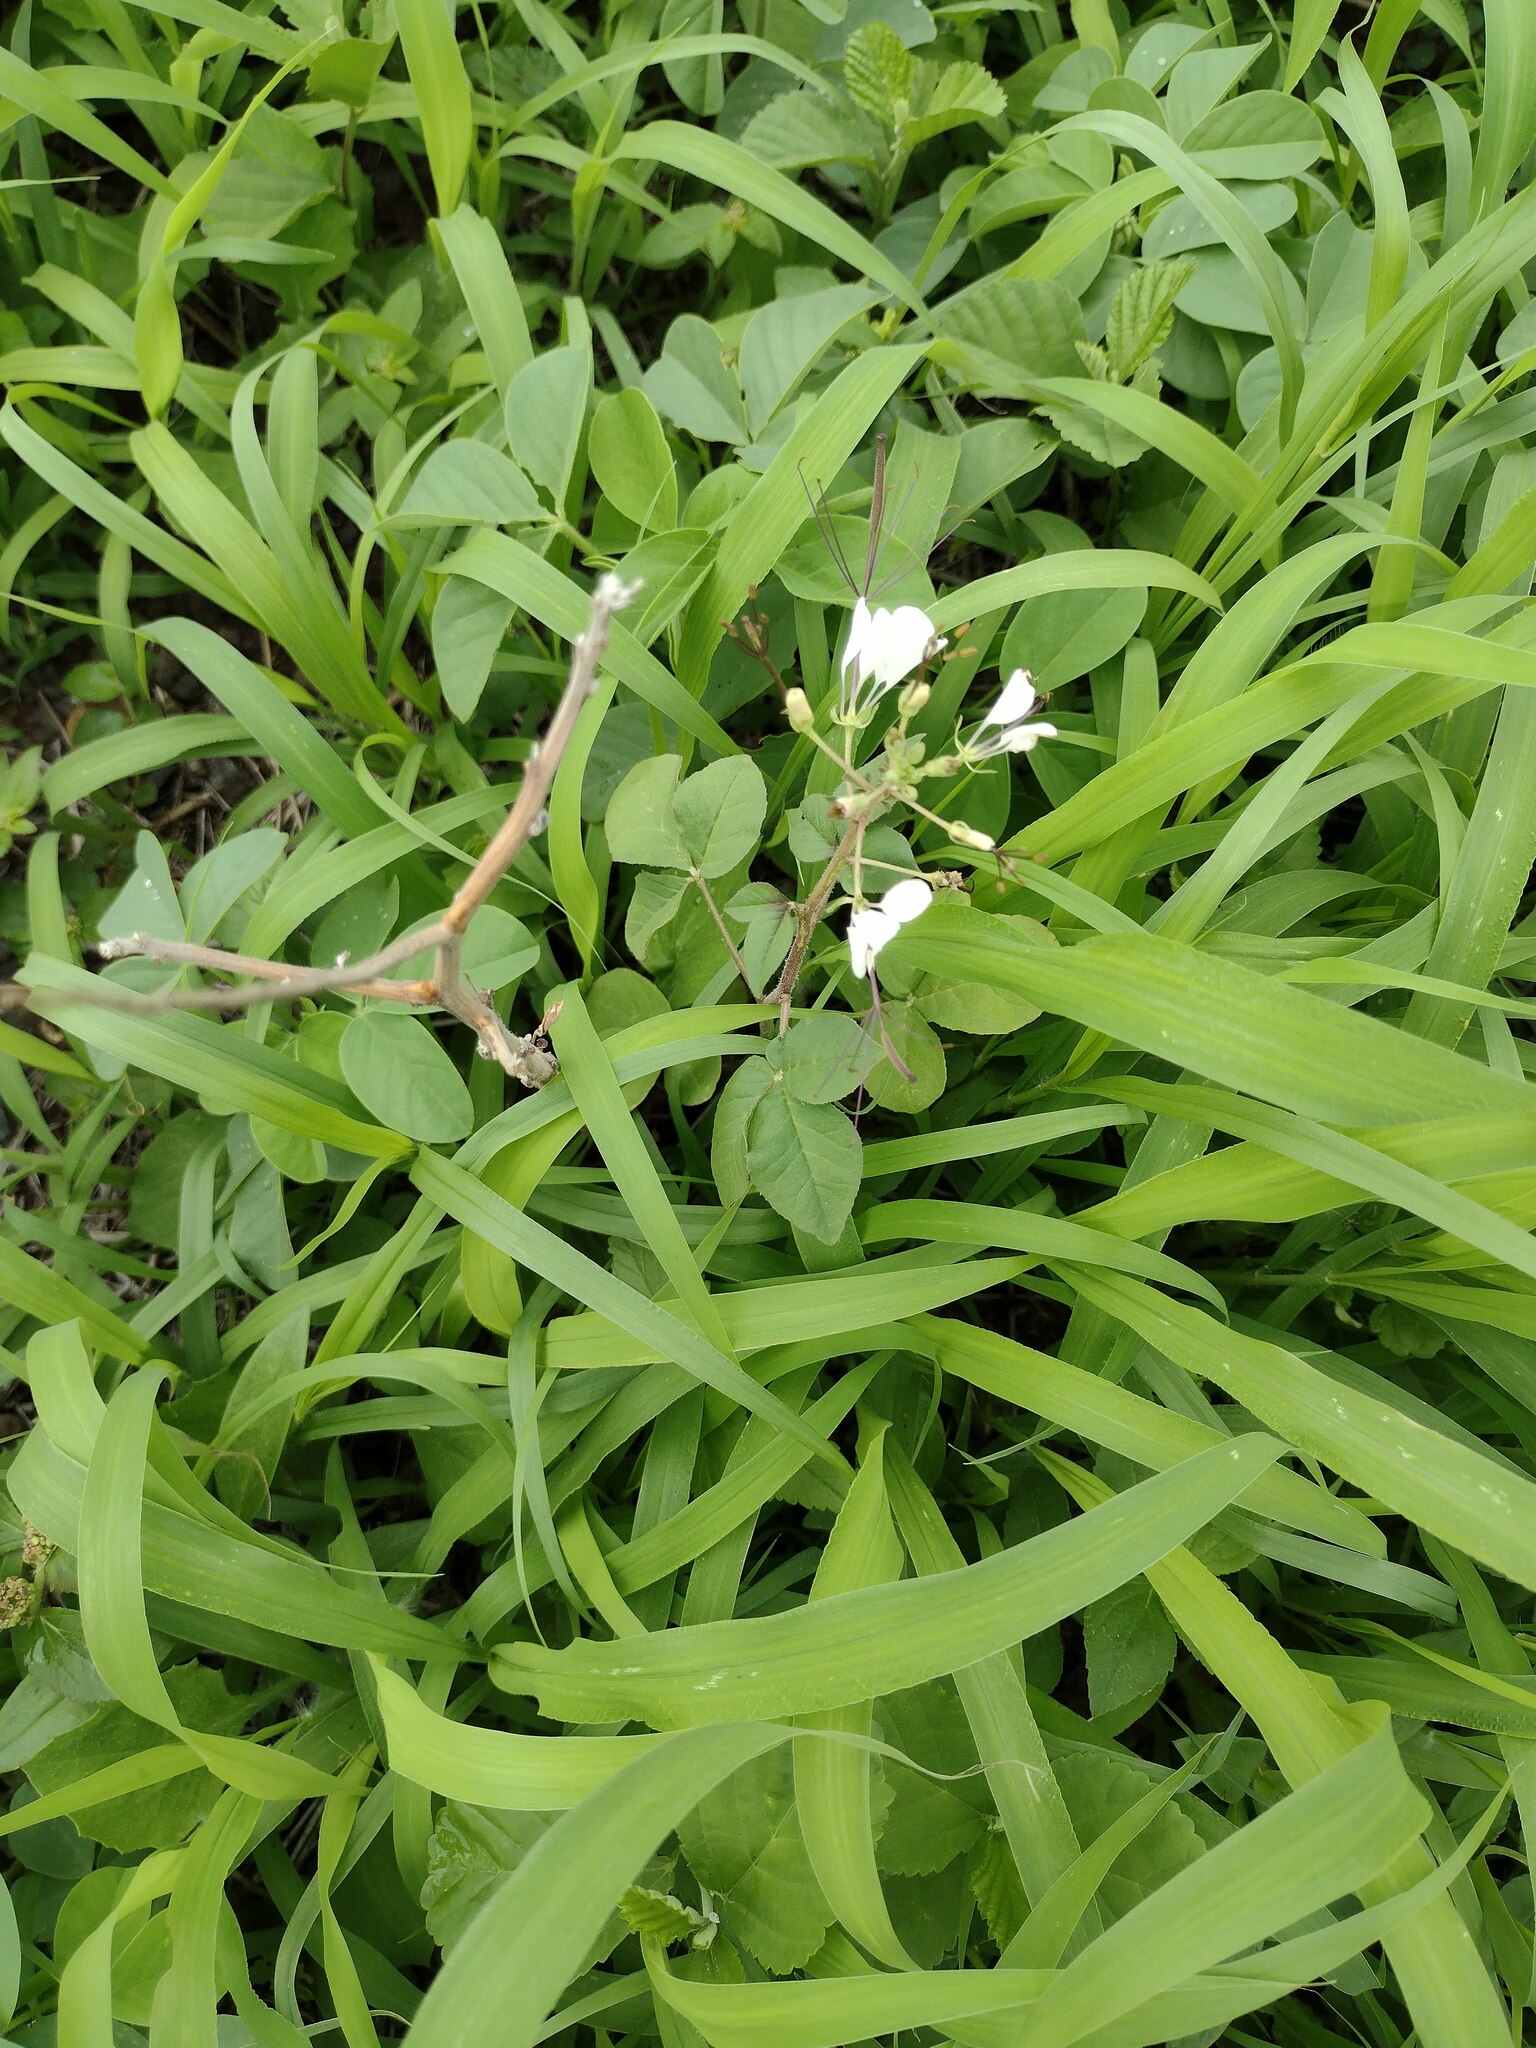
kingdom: Plantae
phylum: Tracheophyta
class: Magnoliopsida
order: Brassicales
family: Cleomaceae
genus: Gynandropsis
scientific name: Gynandropsis gynandra
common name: Spiderwisp
